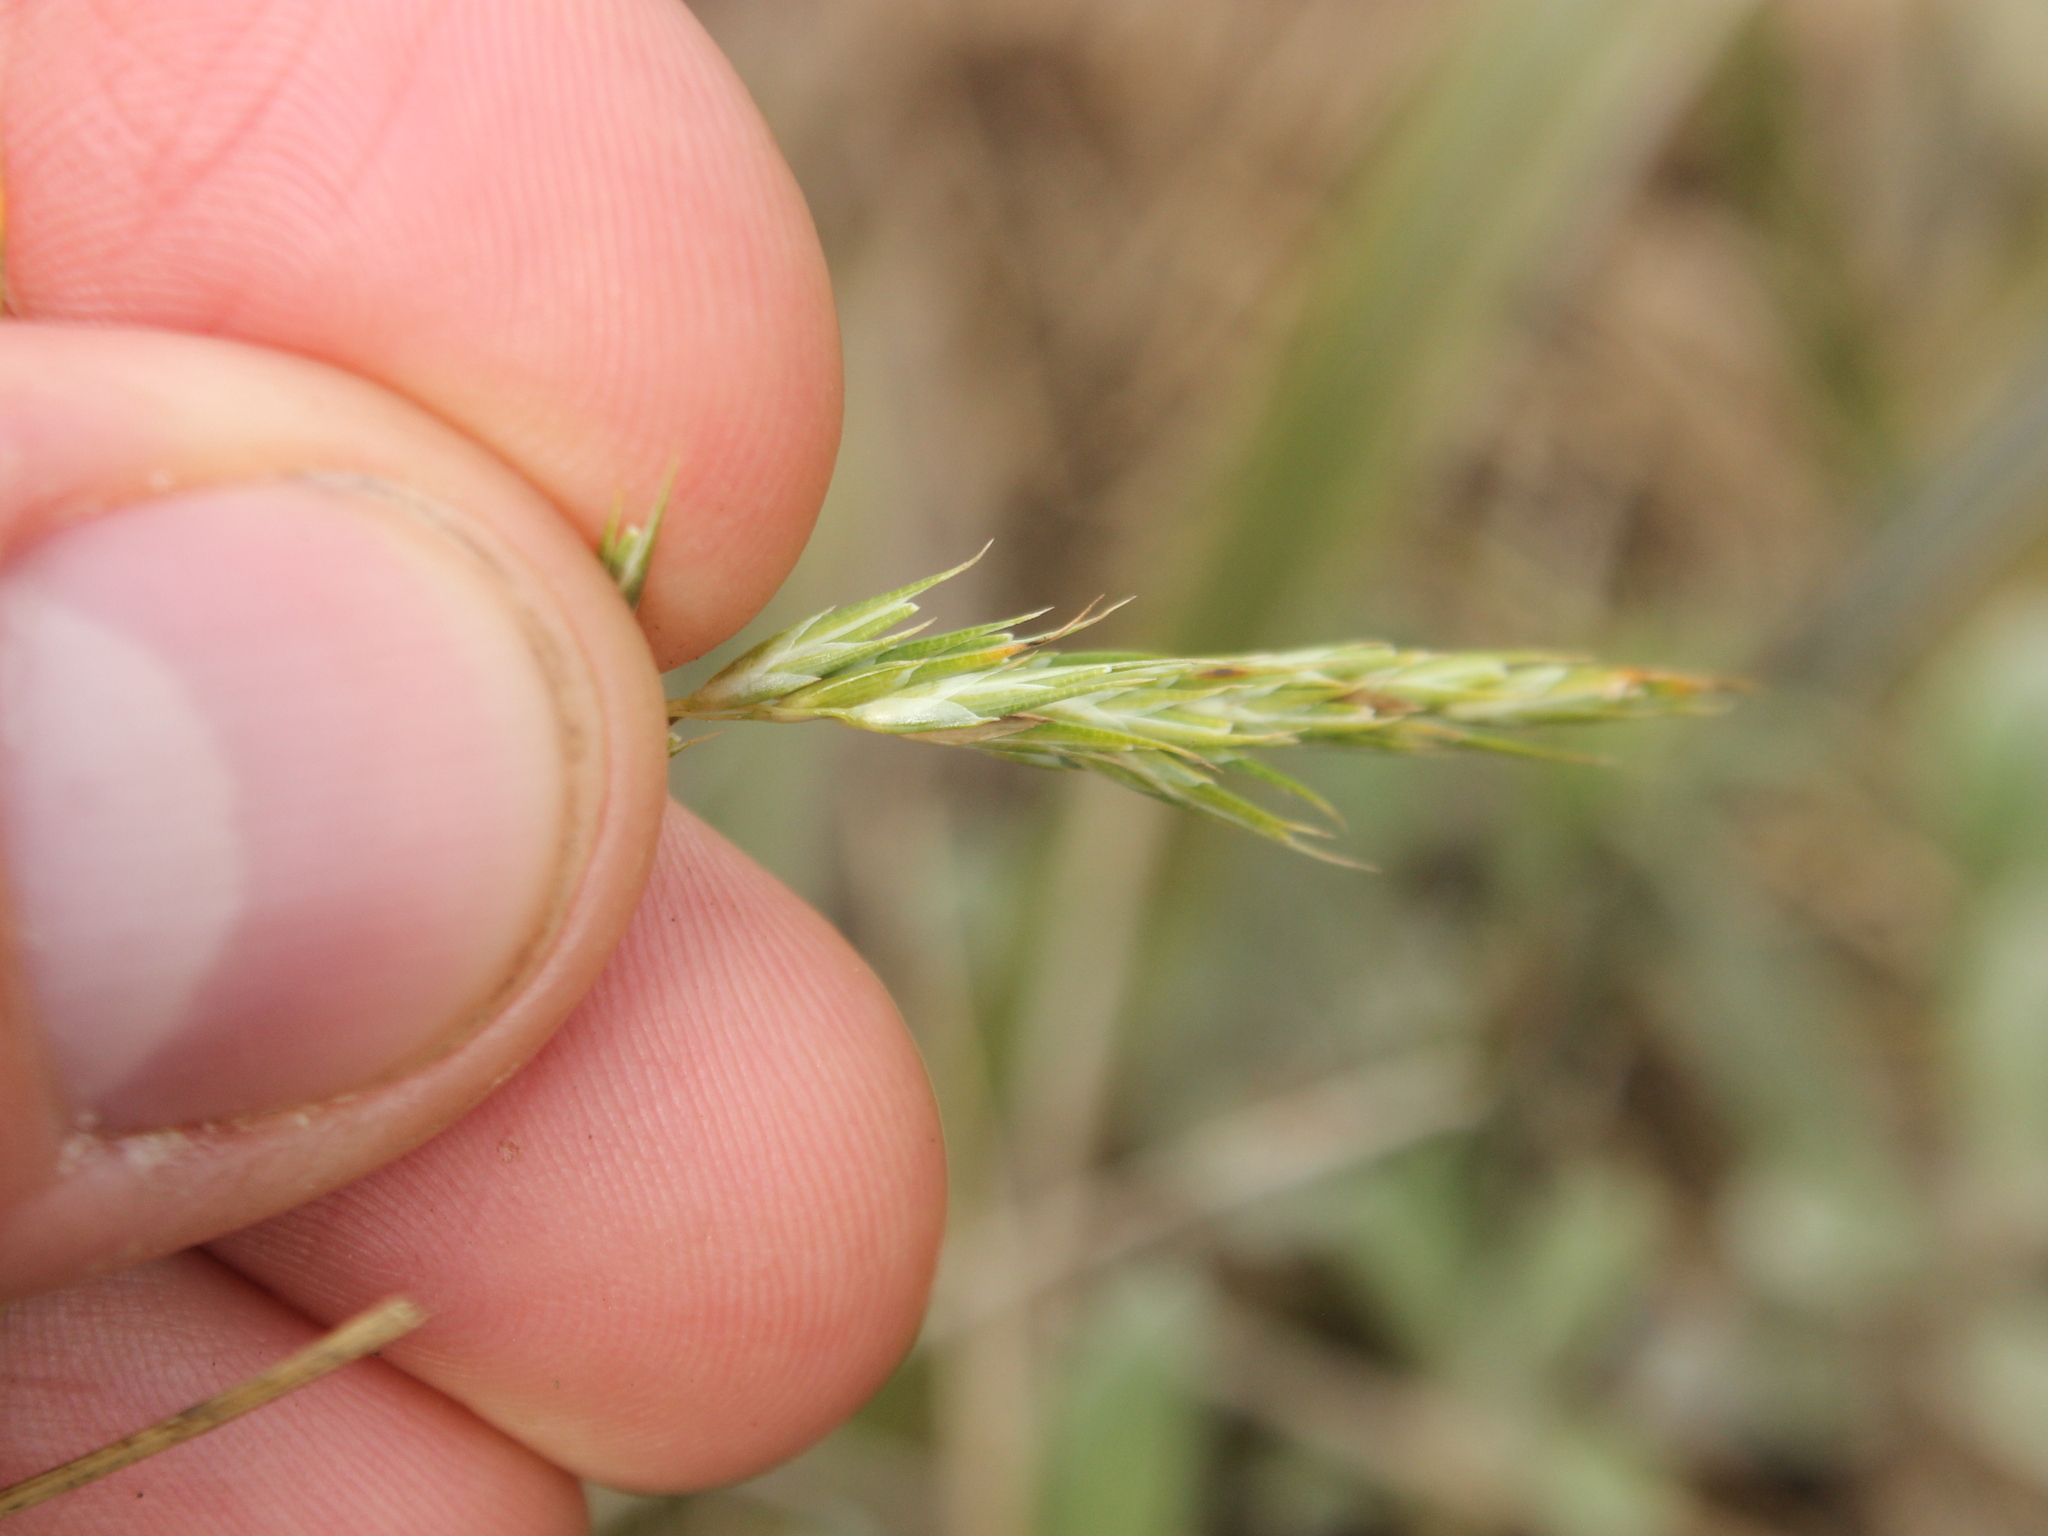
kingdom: Plantae
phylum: Tracheophyta
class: Liliopsida
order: Poales
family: Poaceae
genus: Anthoxanthum
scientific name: Anthoxanthum redolens
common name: Sweet holy grass
